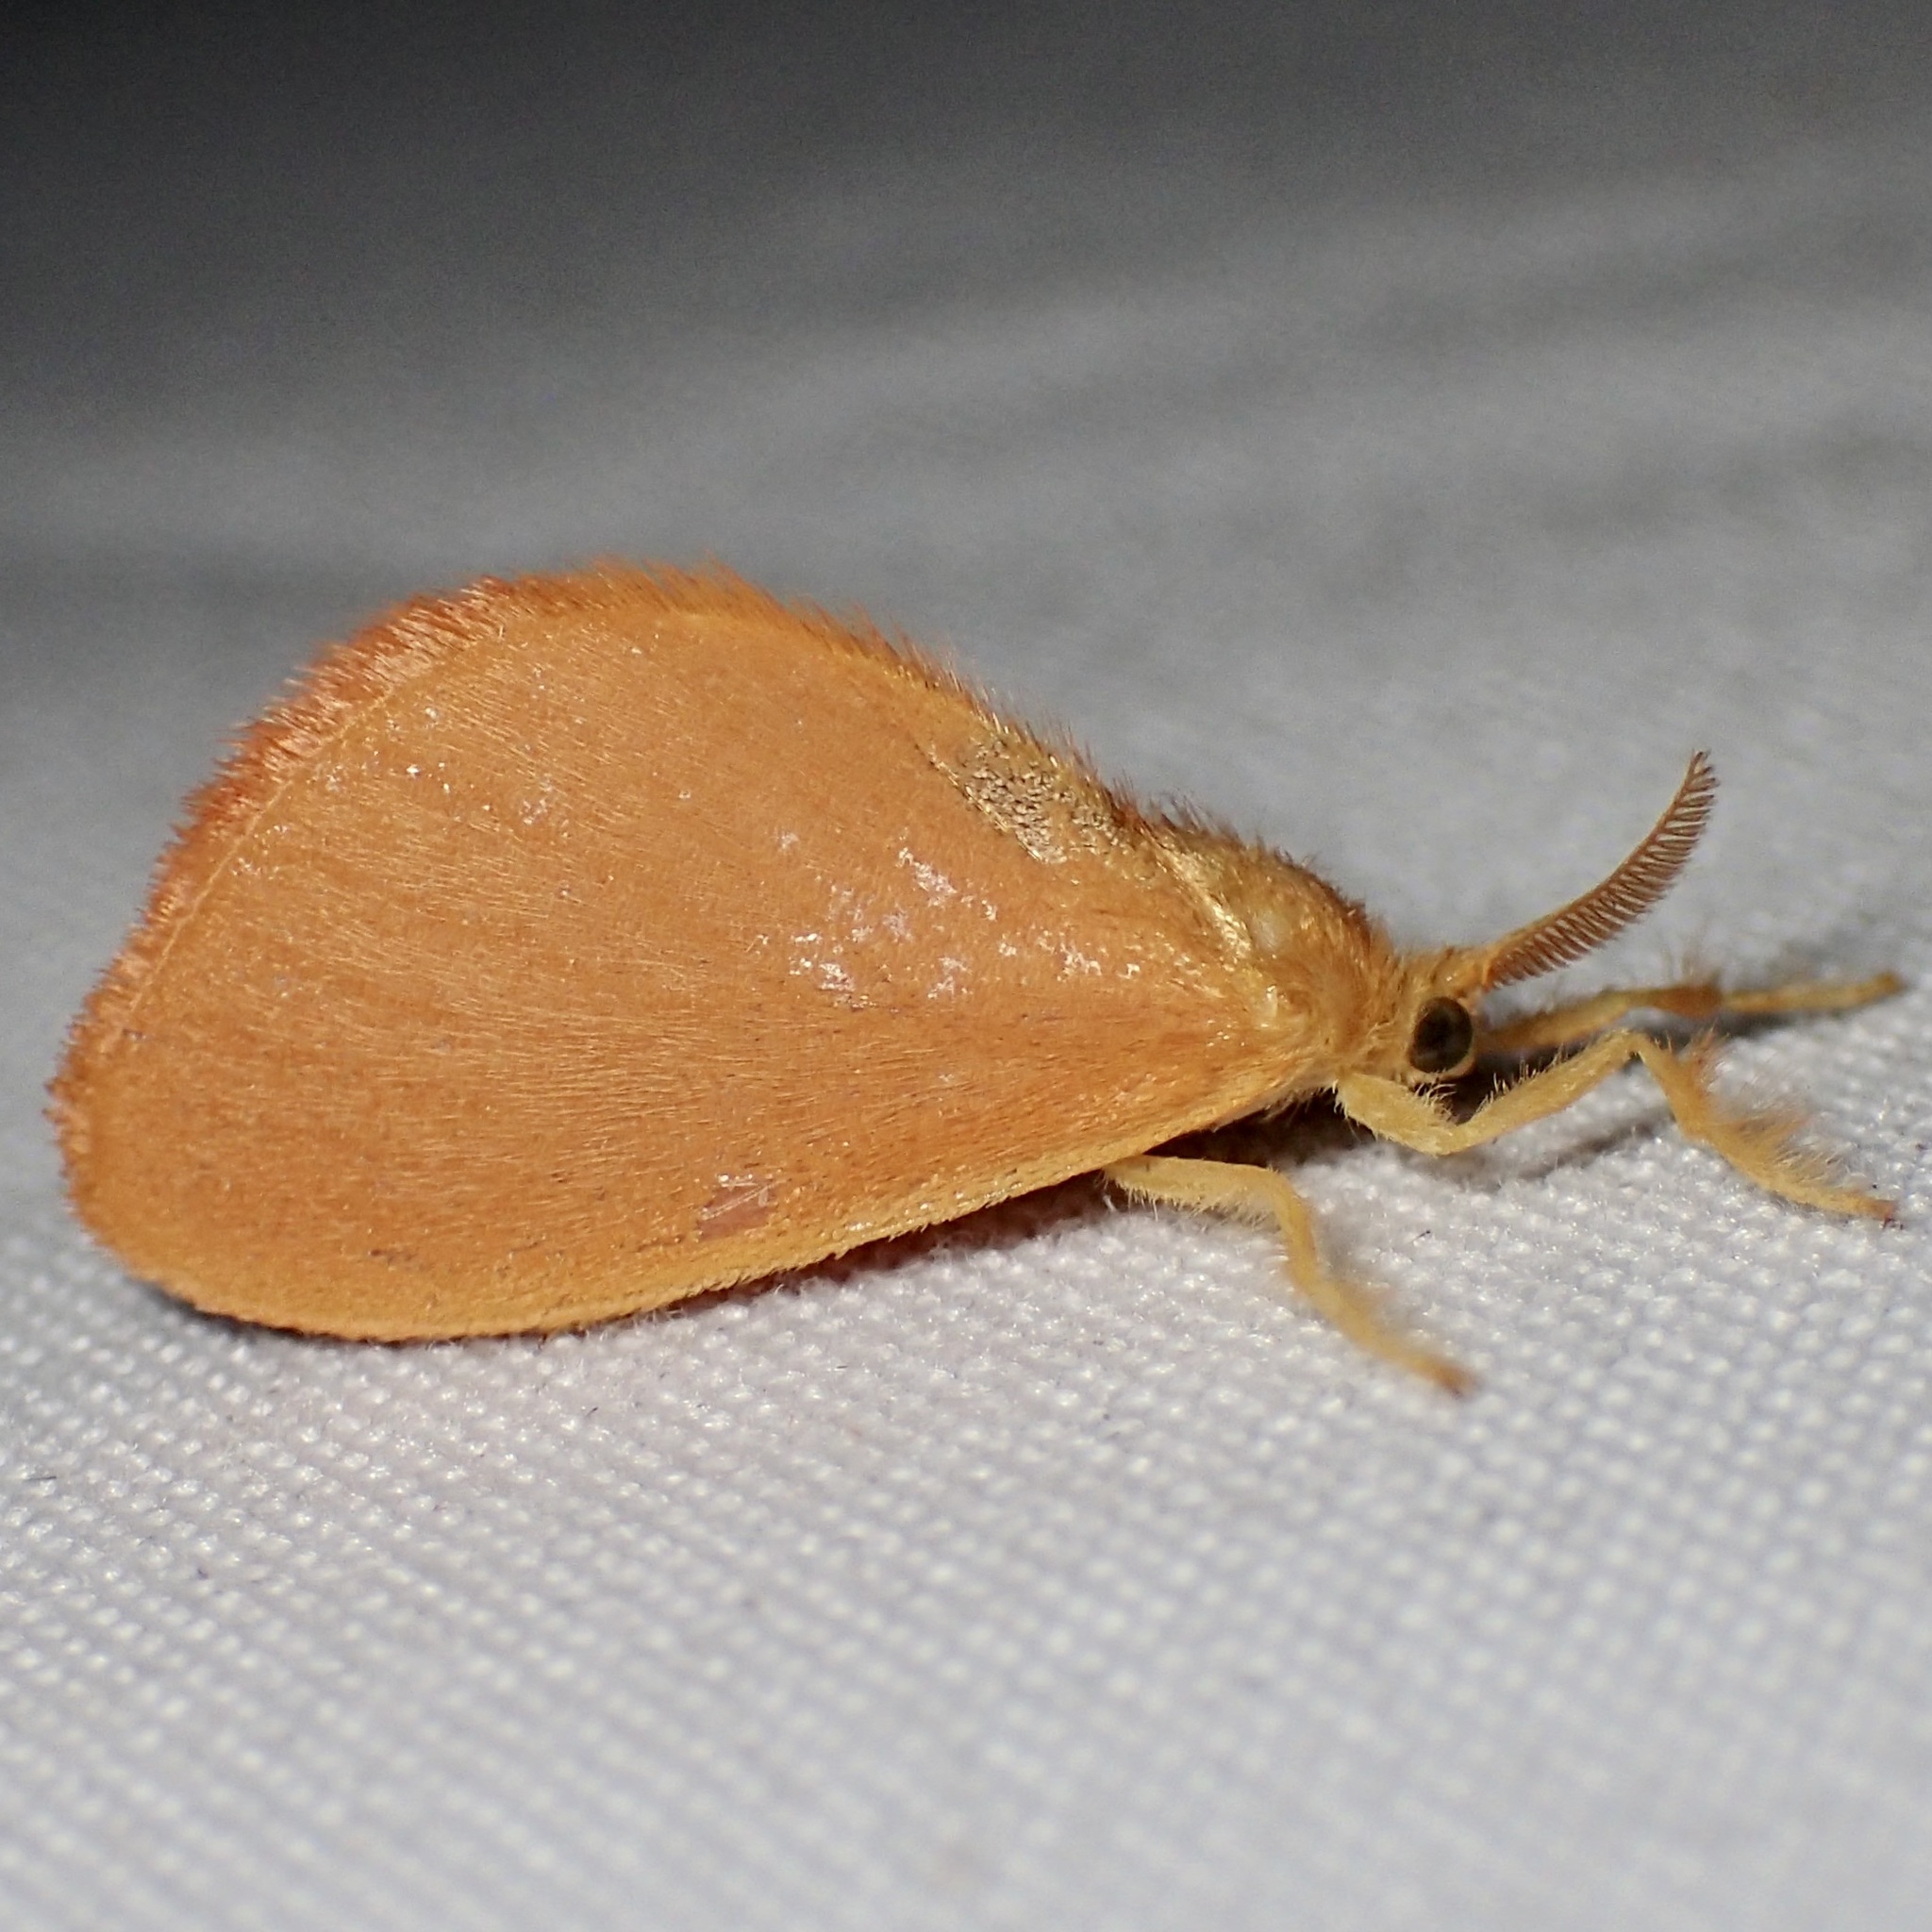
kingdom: Animalia
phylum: Arthropoda
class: Insecta
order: Lepidoptera
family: Dalceridae
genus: Dalcerides
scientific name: Dalcerides ingenita
